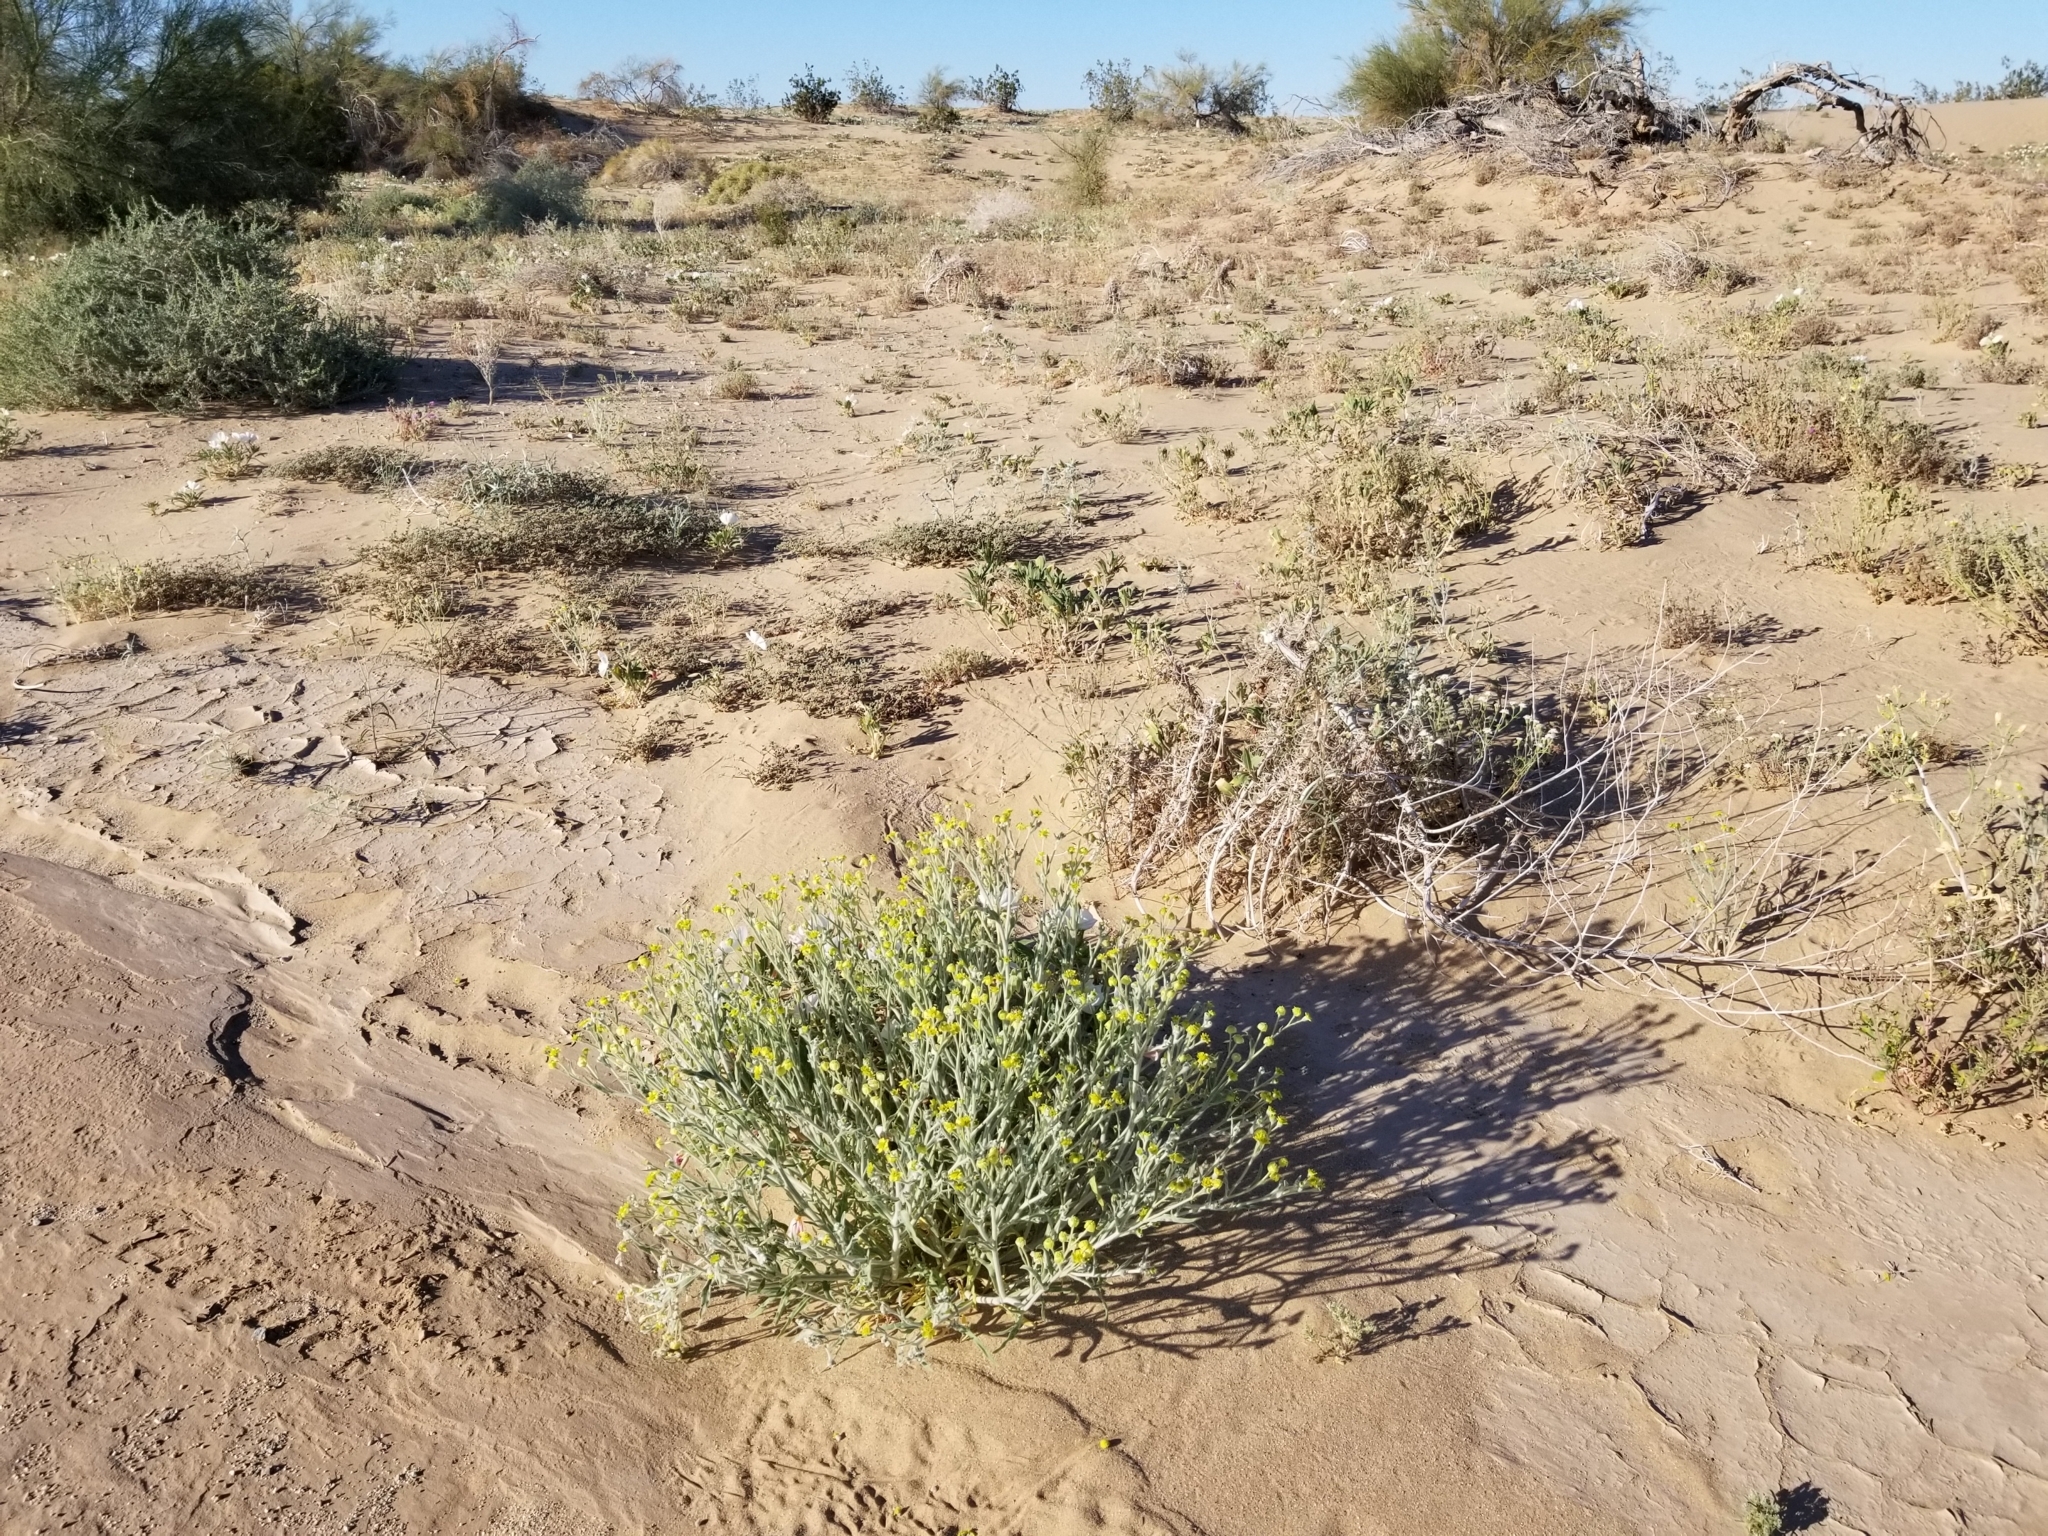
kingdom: Plantae
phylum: Tracheophyta
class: Magnoliopsida
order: Asterales
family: Asteraceae
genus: Baileya
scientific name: Baileya pauciradiata
